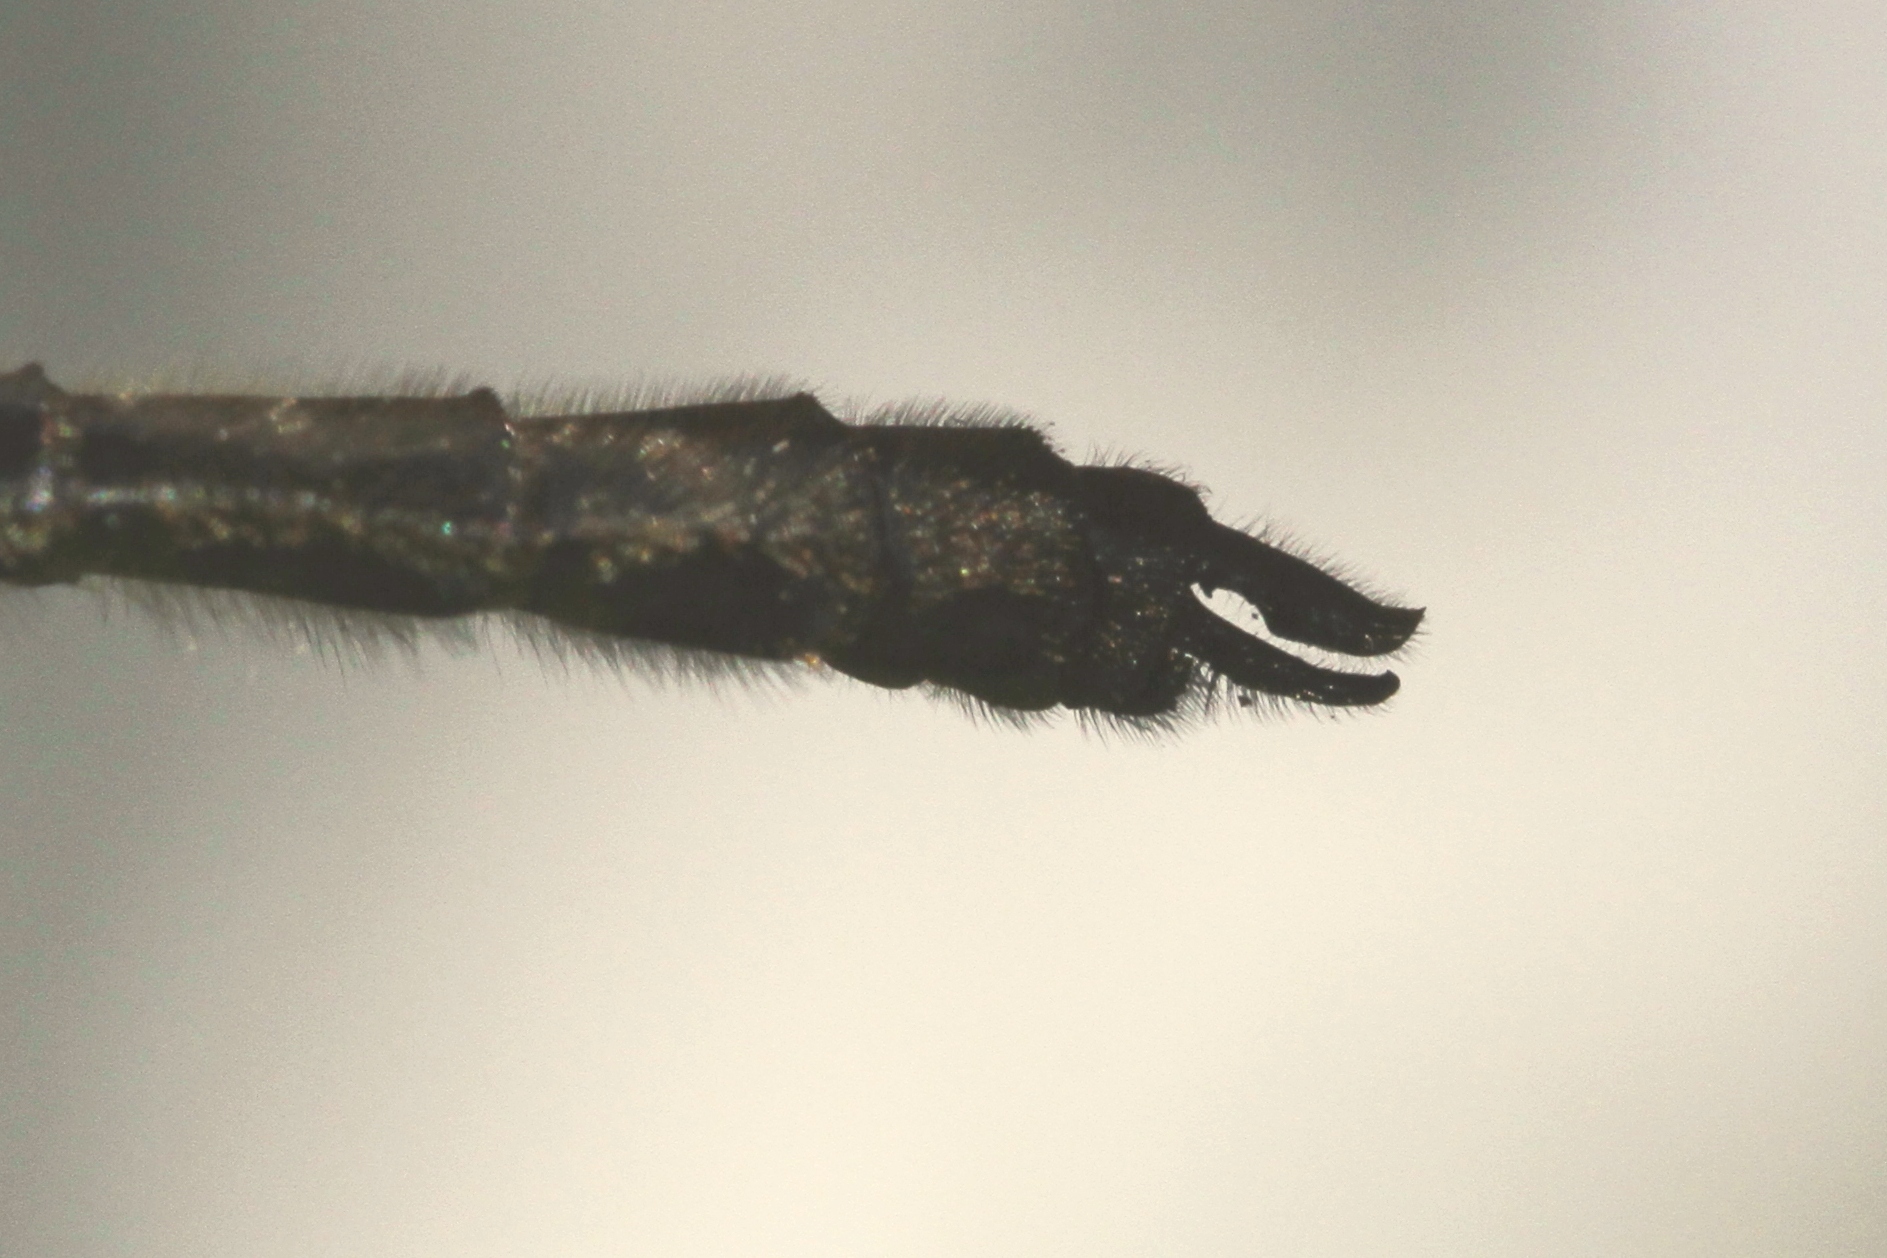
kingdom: Animalia
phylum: Arthropoda
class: Insecta
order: Odonata
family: Corduliidae
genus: Dorocordulia
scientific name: Dorocordulia libera
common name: Racket-tailed emerald
